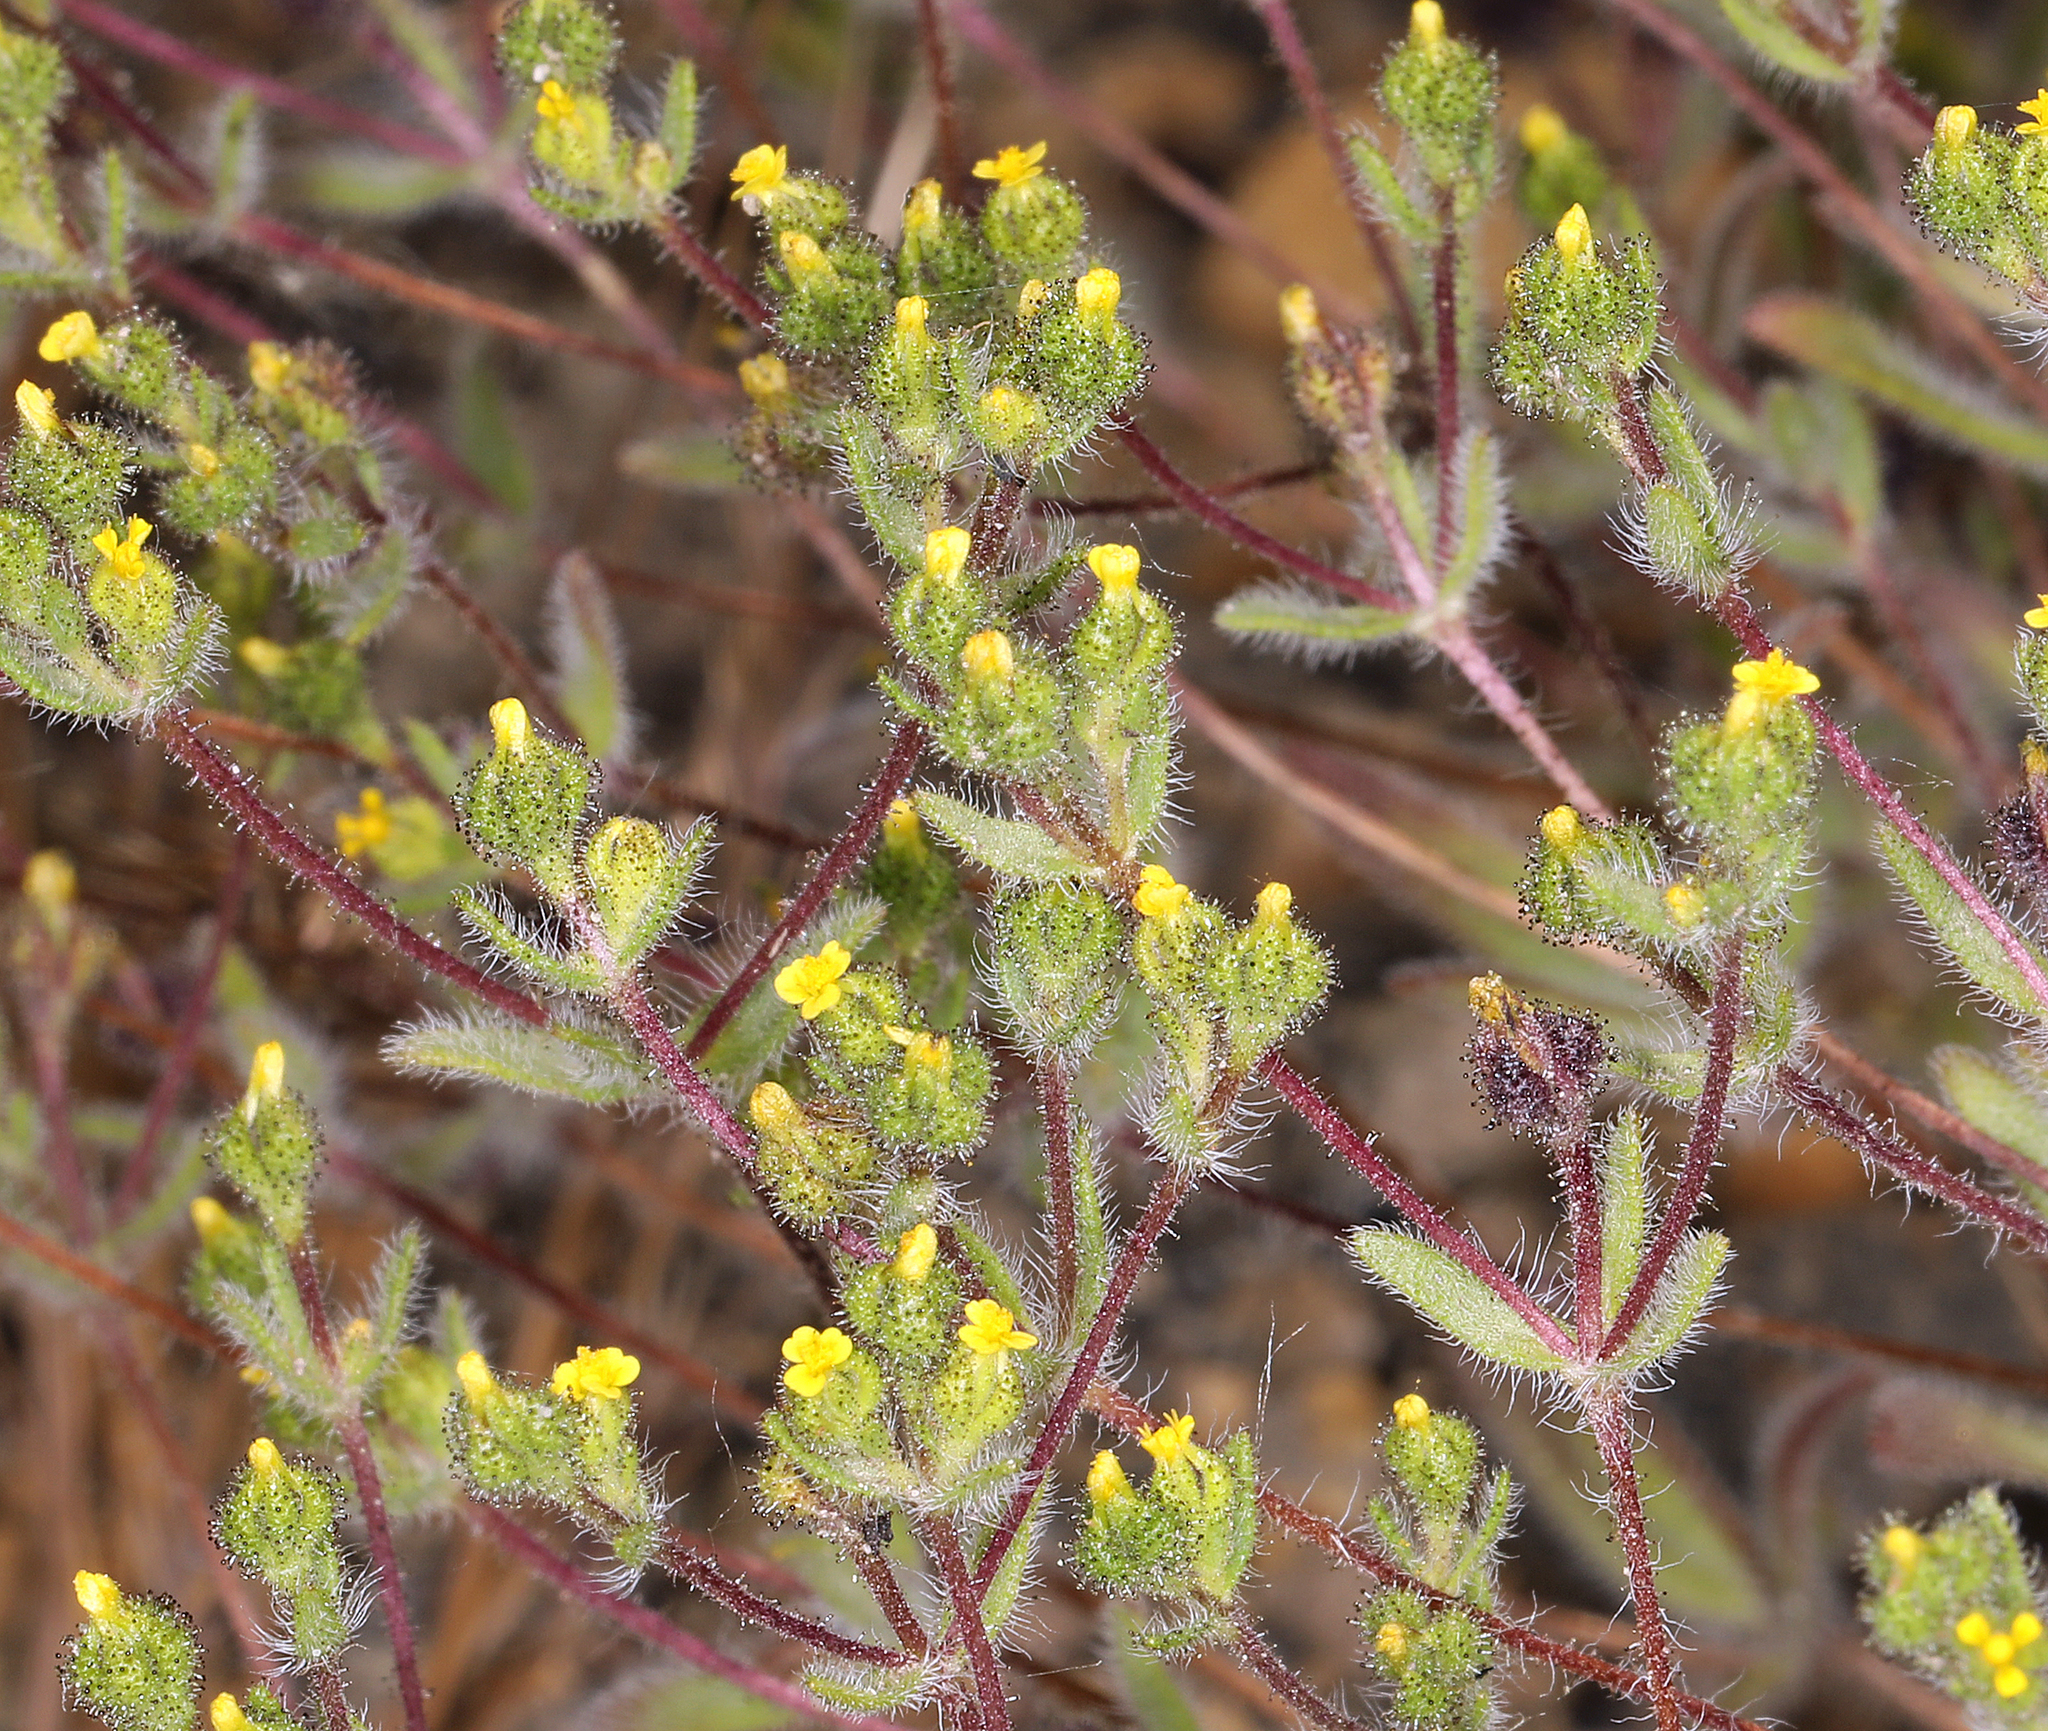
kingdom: Plantae
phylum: Tracheophyta
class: Magnoliopsida
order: Asterales
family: Asteraceae
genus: Hemizonella
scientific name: Hemizonella minima
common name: Opposite-leaved tarweed
